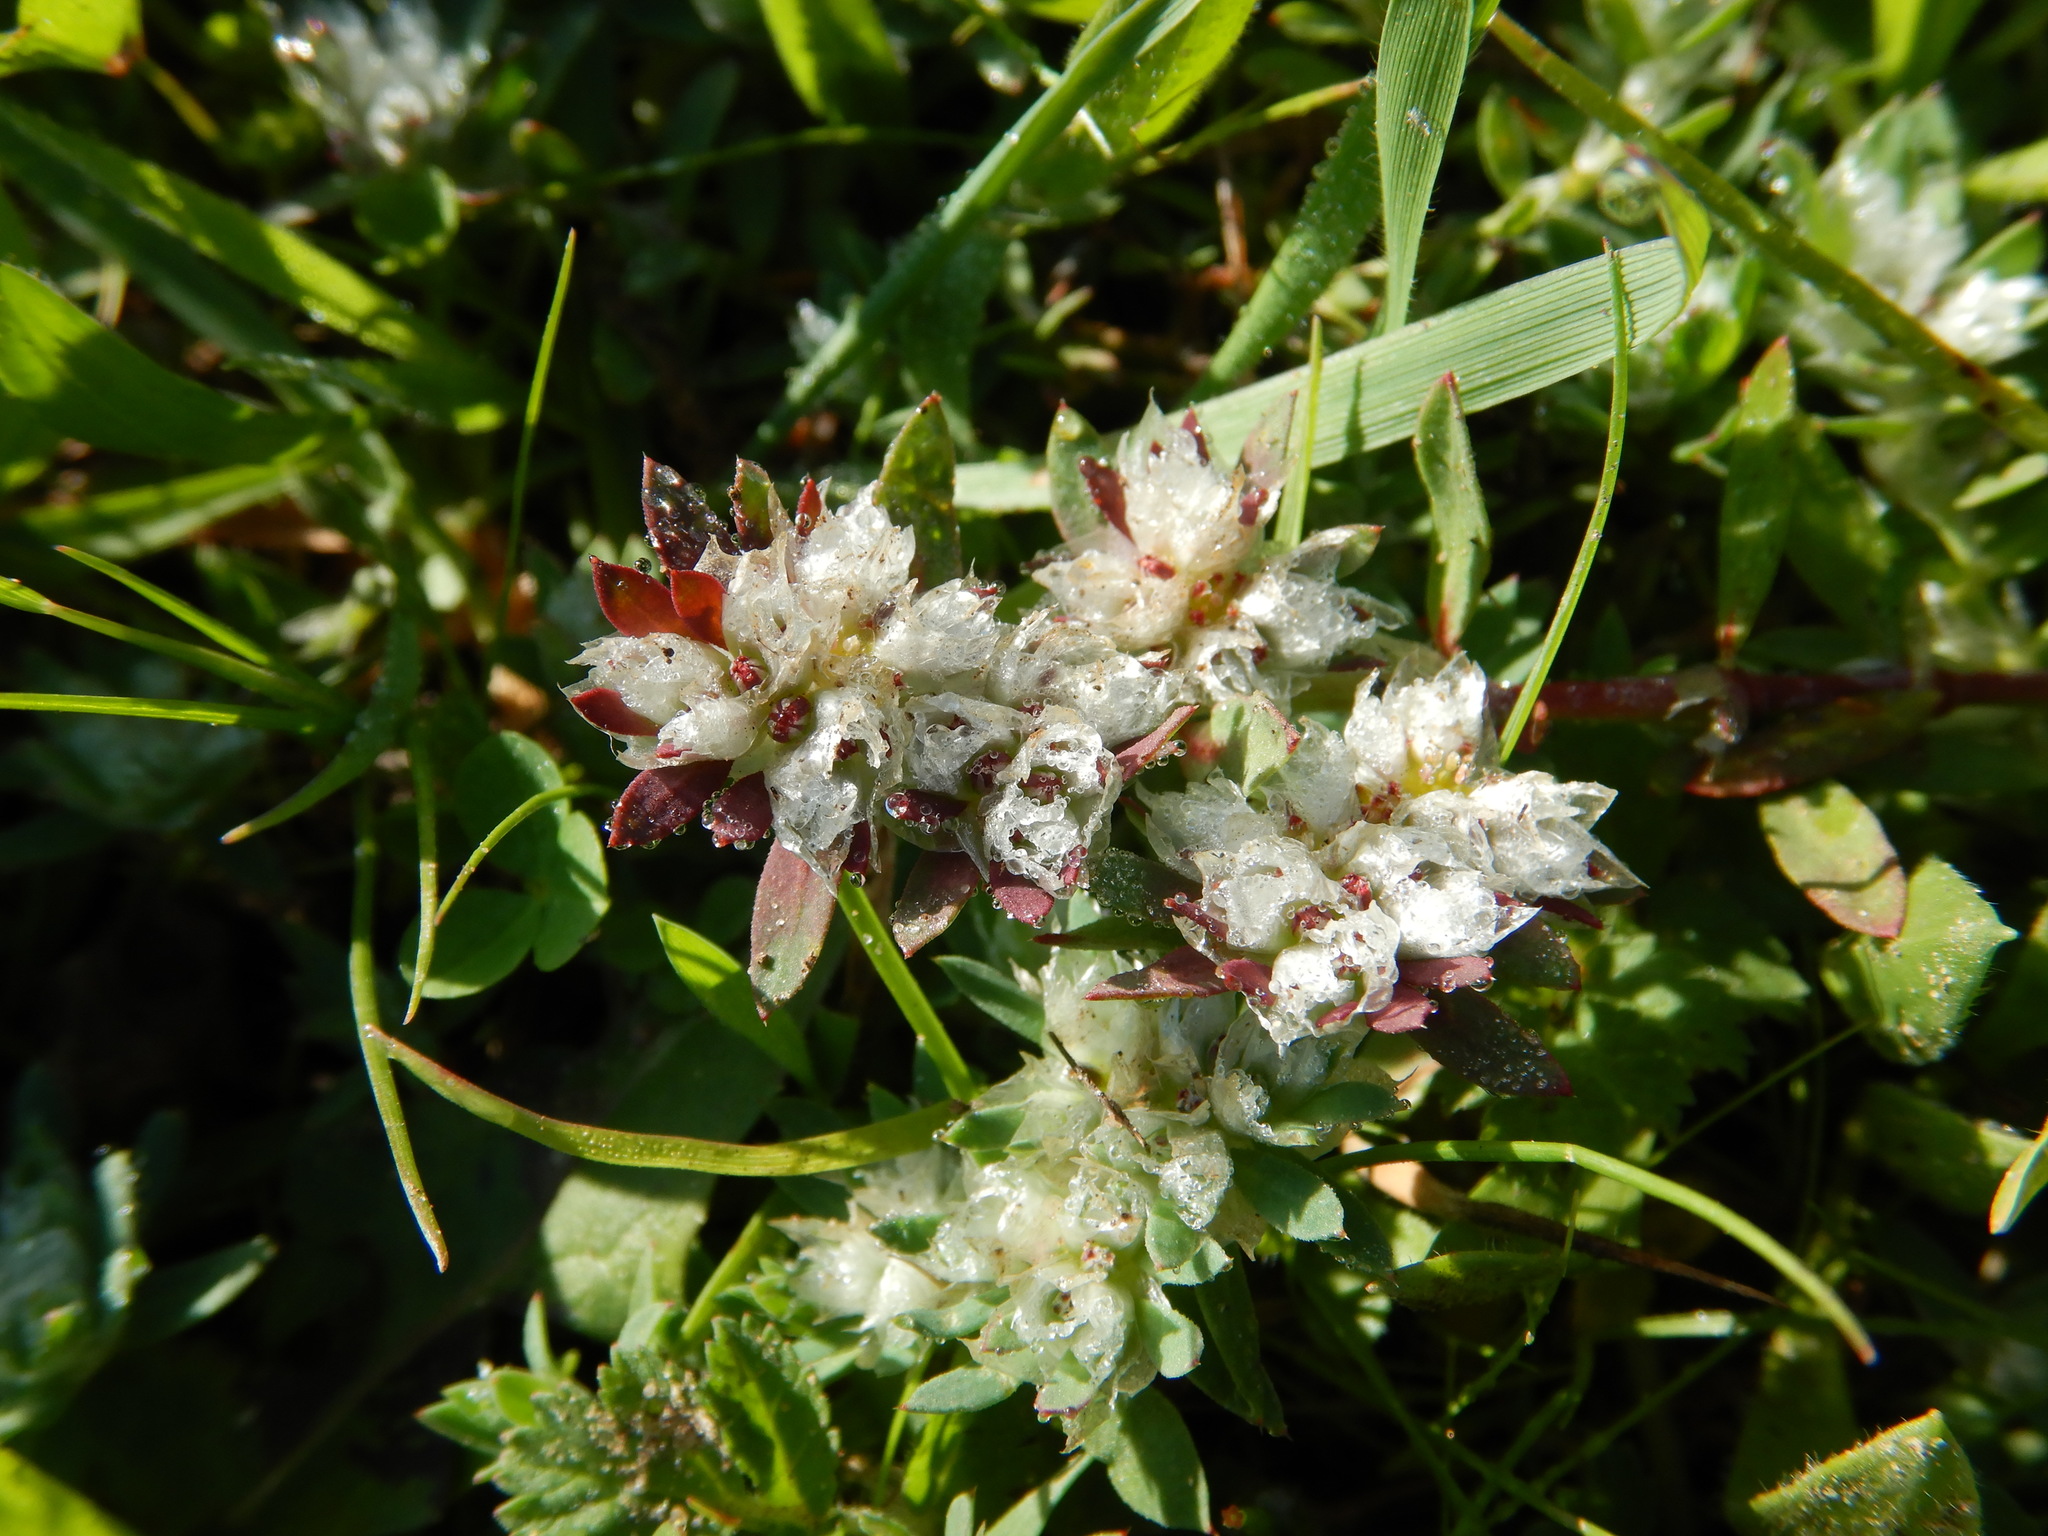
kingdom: Plantae
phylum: Tracheophyta
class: Magnoliopsida
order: Caryophyllales
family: Caryophyllaceae
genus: Paronychia
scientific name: Paronychia argentea
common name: Silver nailroot
